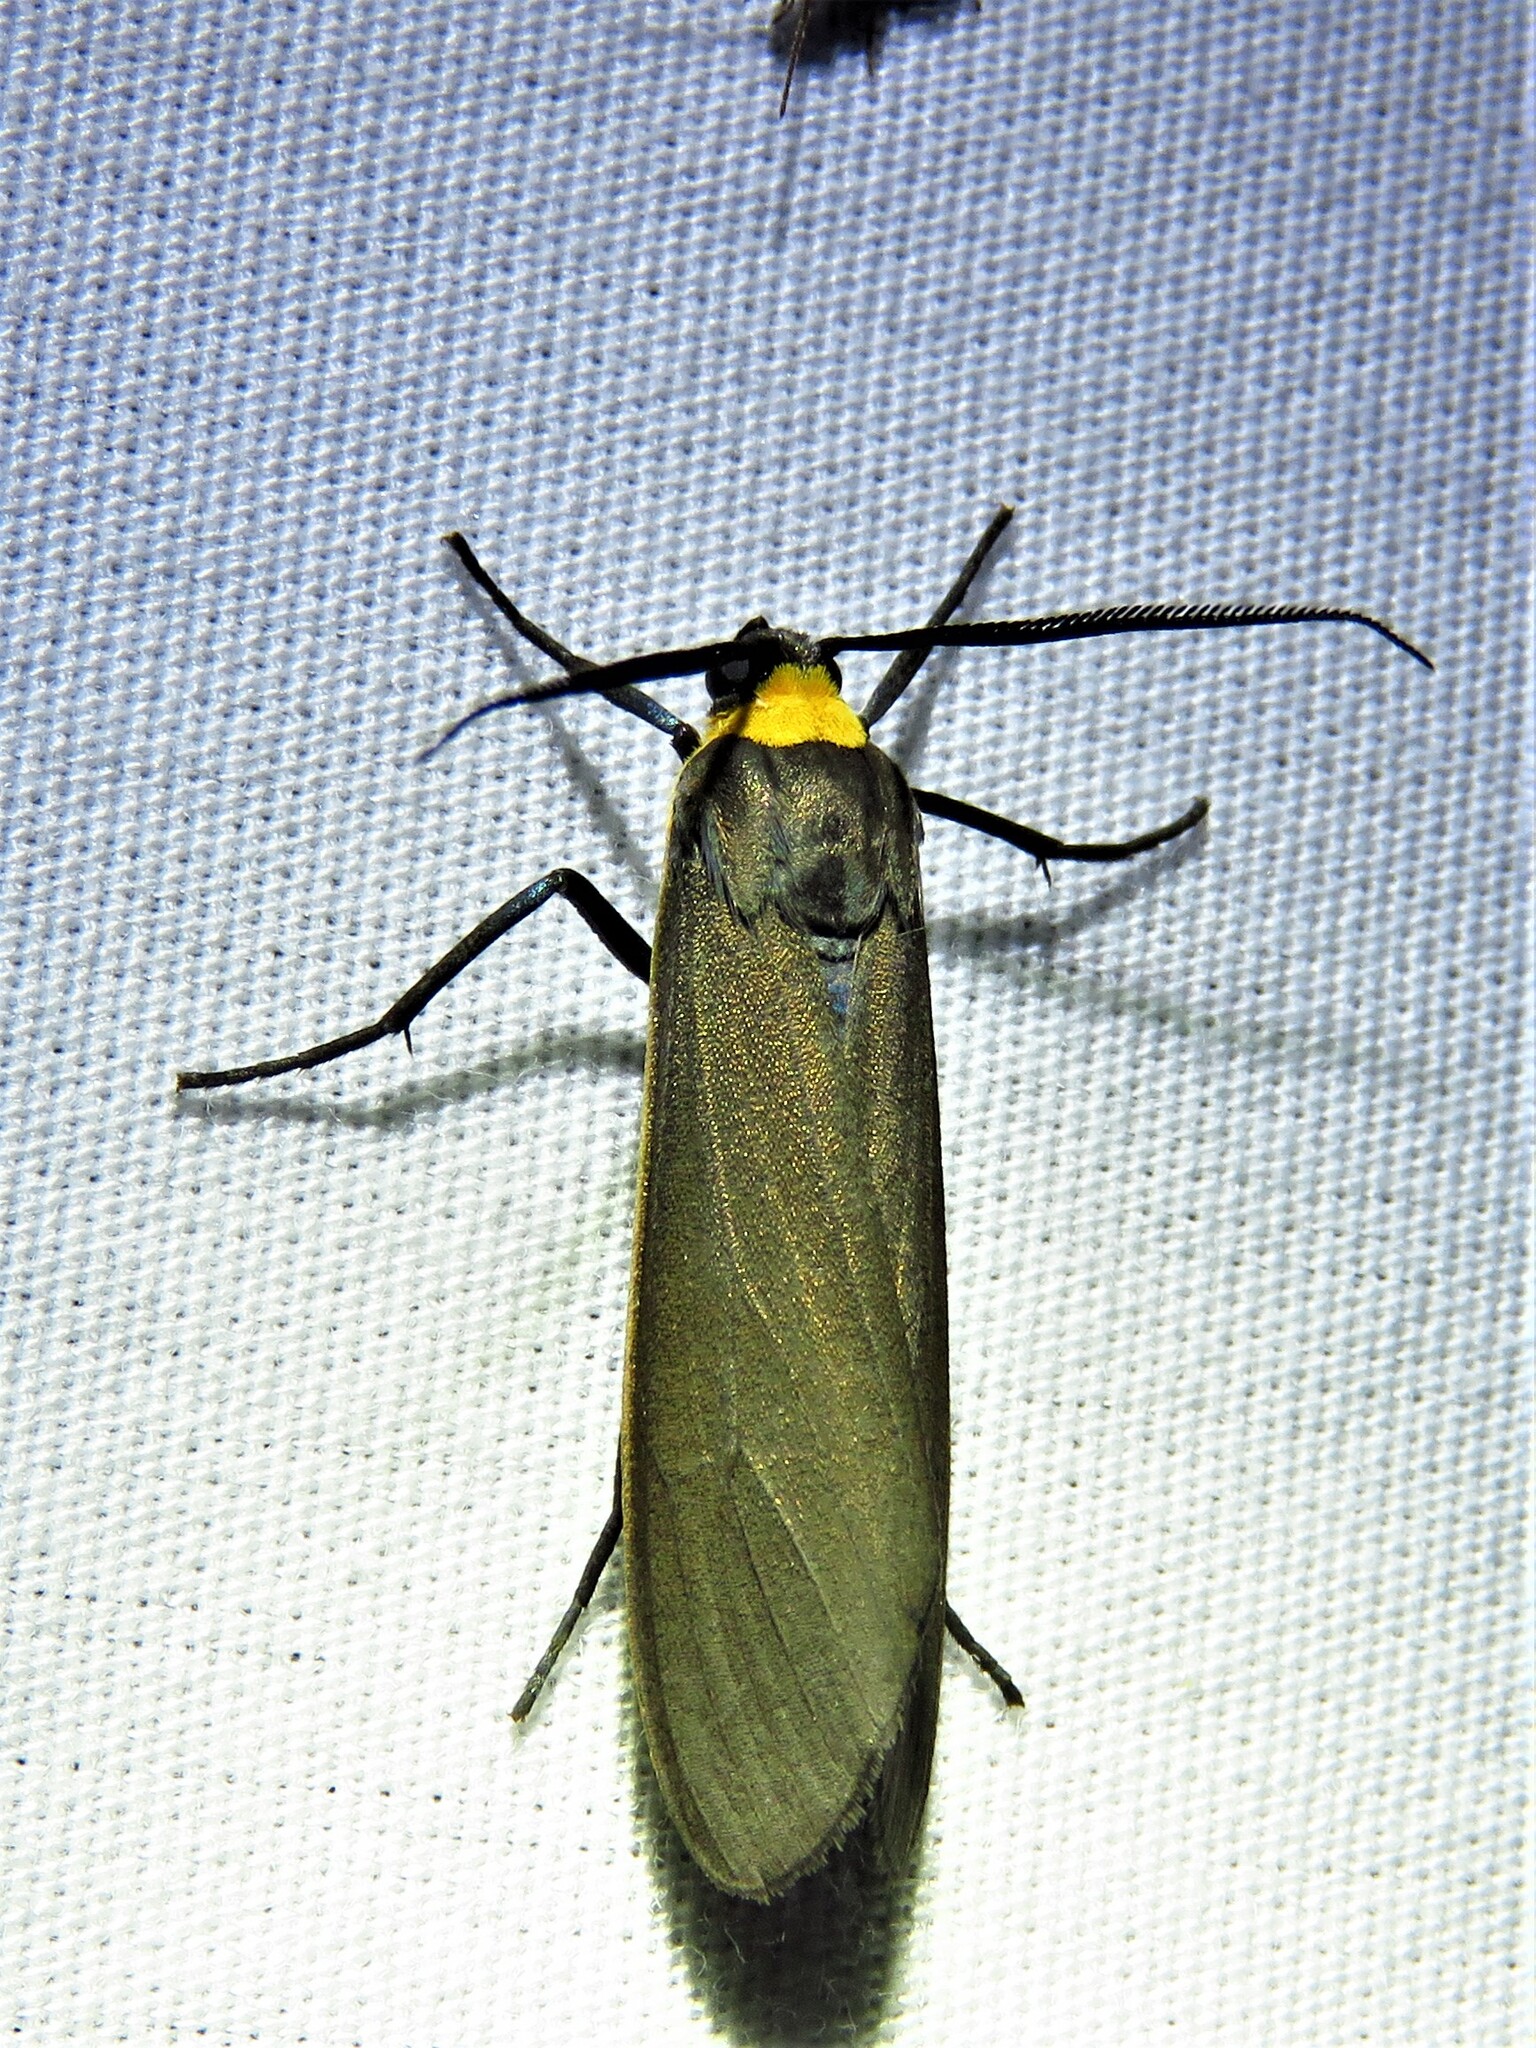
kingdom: Animalia
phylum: Arthropoda
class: Insecta
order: Lepidoptera
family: Erebidae
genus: Cisseps
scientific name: Cisseps fulvicollis
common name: Yellow-collared scape moth
